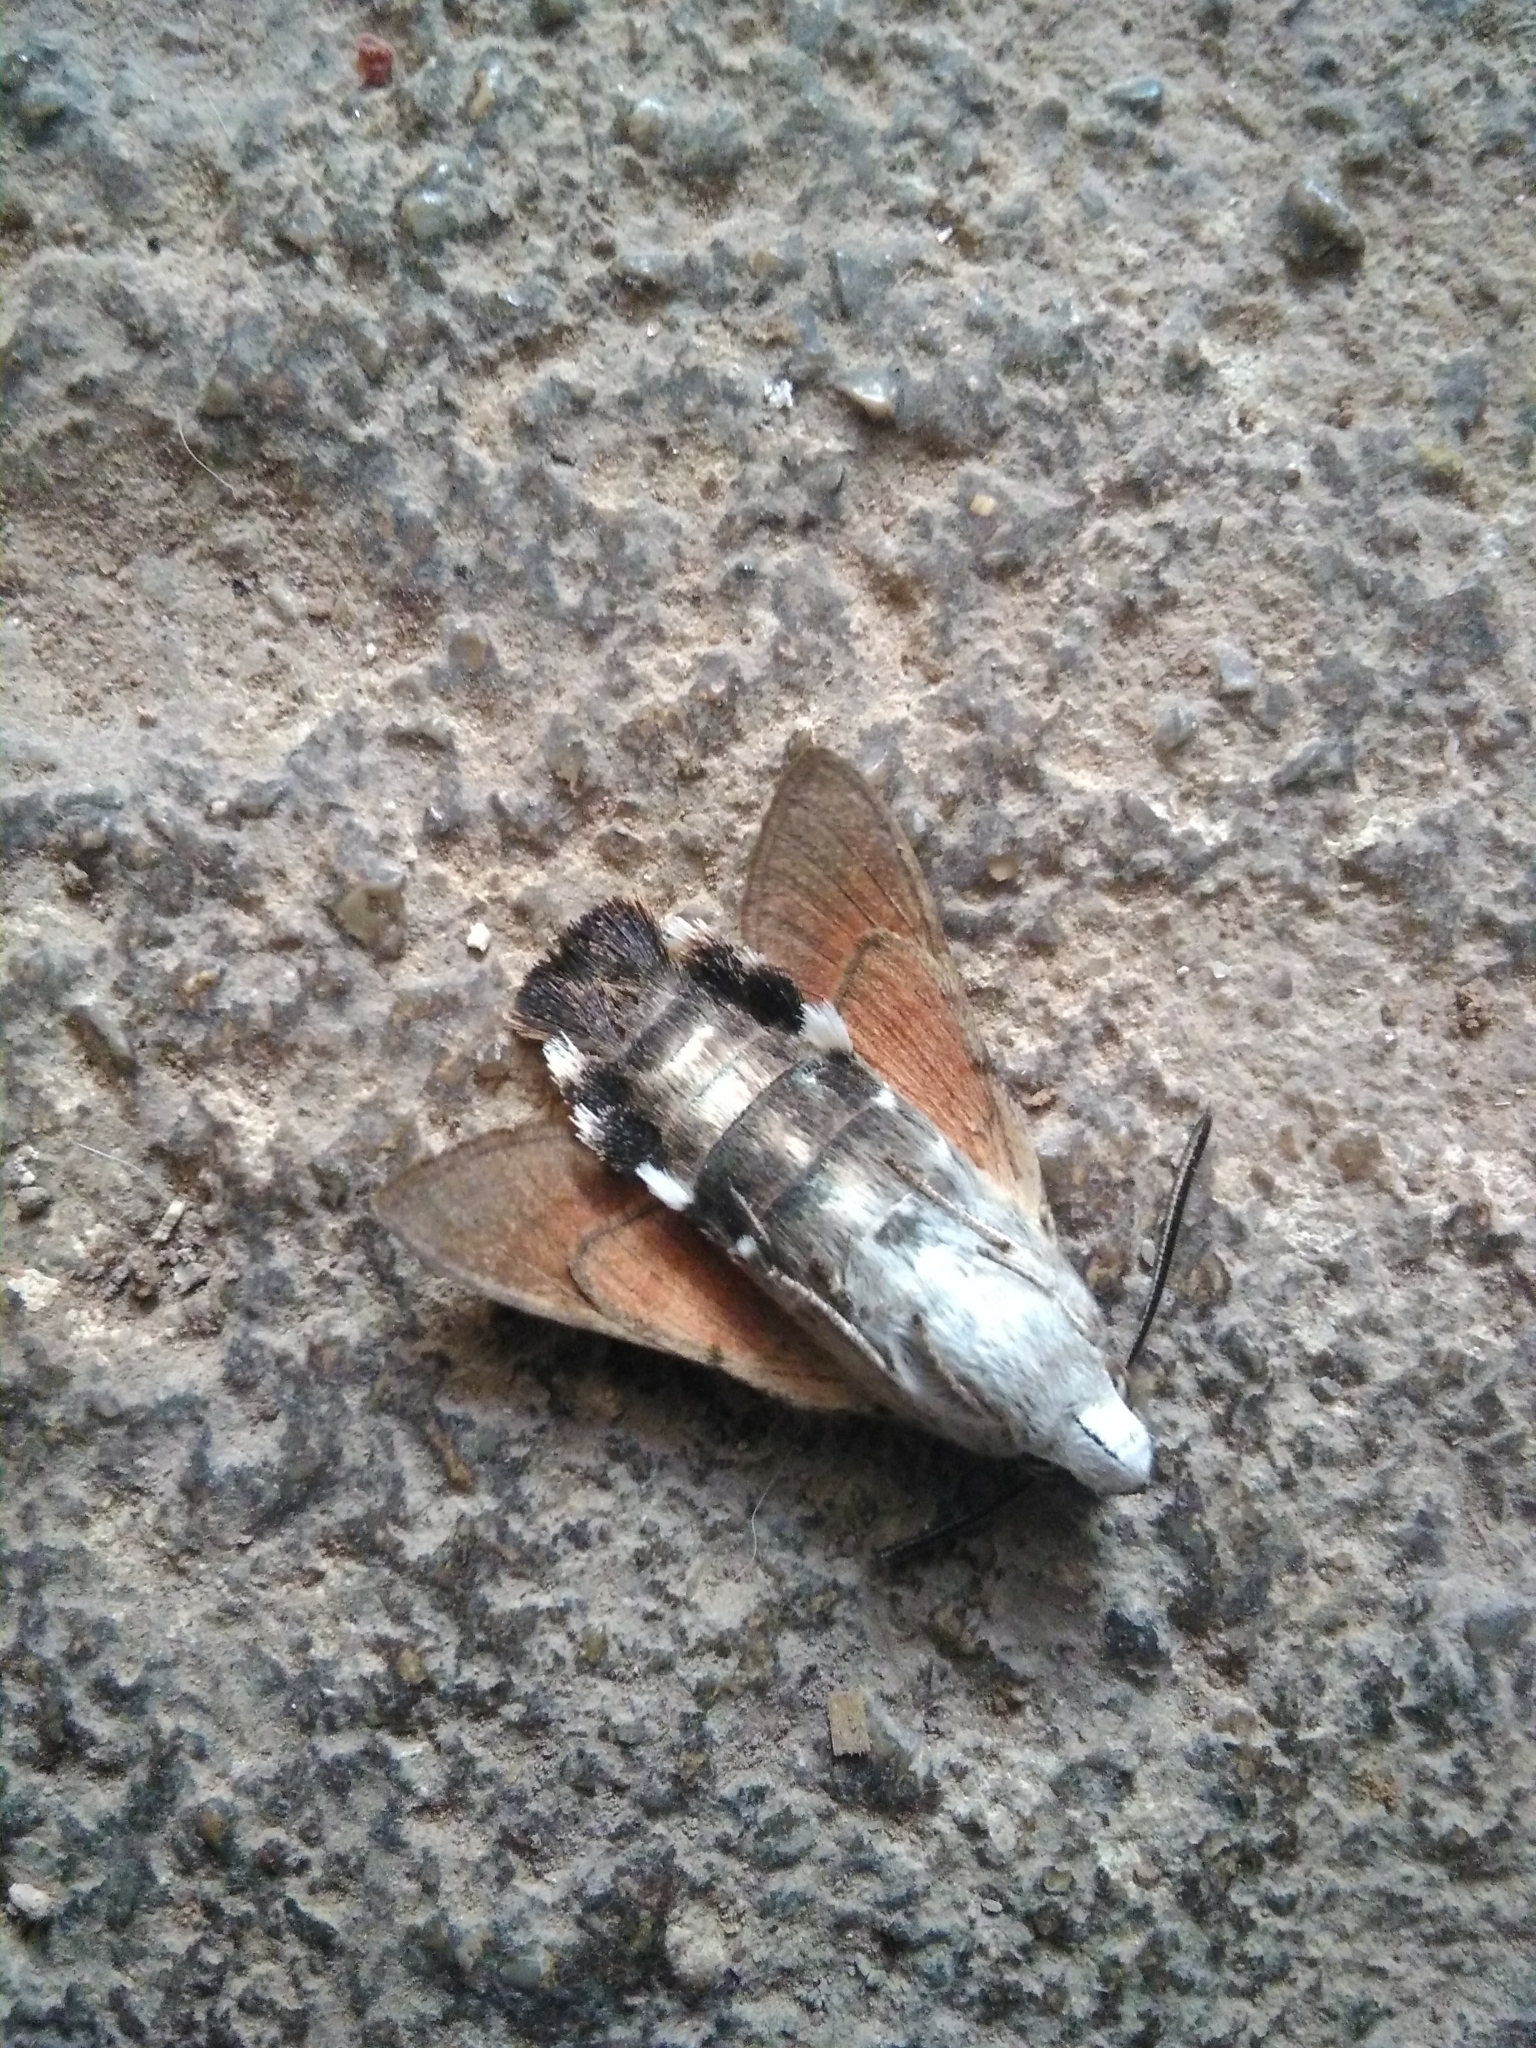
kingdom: Animalia
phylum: Arthropoda
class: Insecta
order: Lepidoptera
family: Sphingidae
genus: Macroglossum
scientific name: Macroglossum stellatarum
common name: Humming-bird hawk-moth
